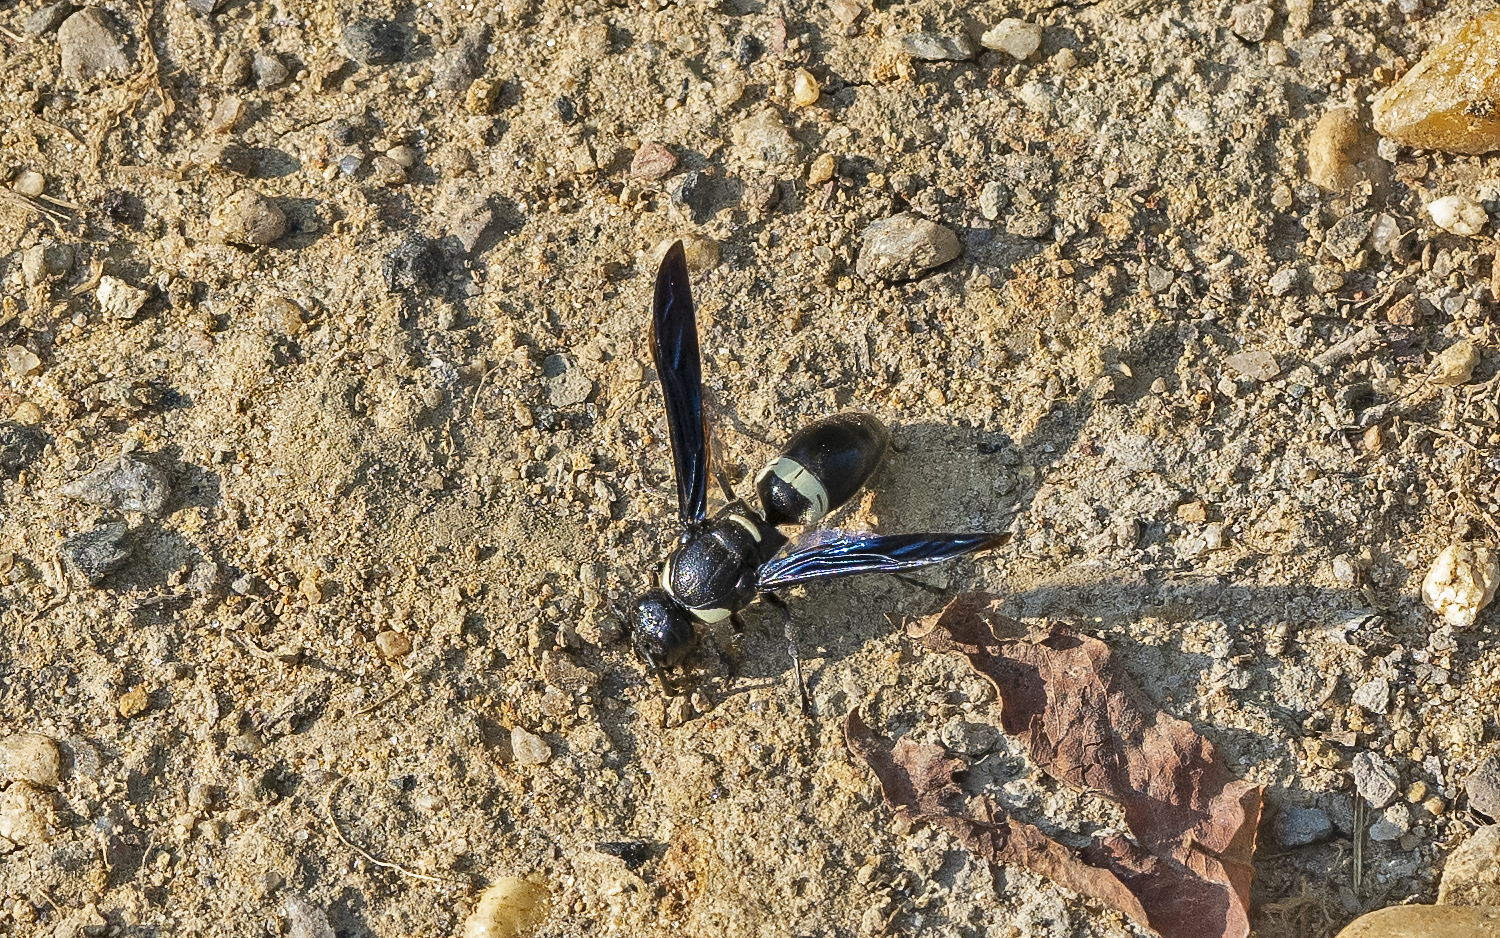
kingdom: Animalia
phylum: Arthropoda
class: Insecta
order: Hymenoptera
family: Eumenidae
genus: Monobia
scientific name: Monobia quadridens
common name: Four-toothed mason wasp
